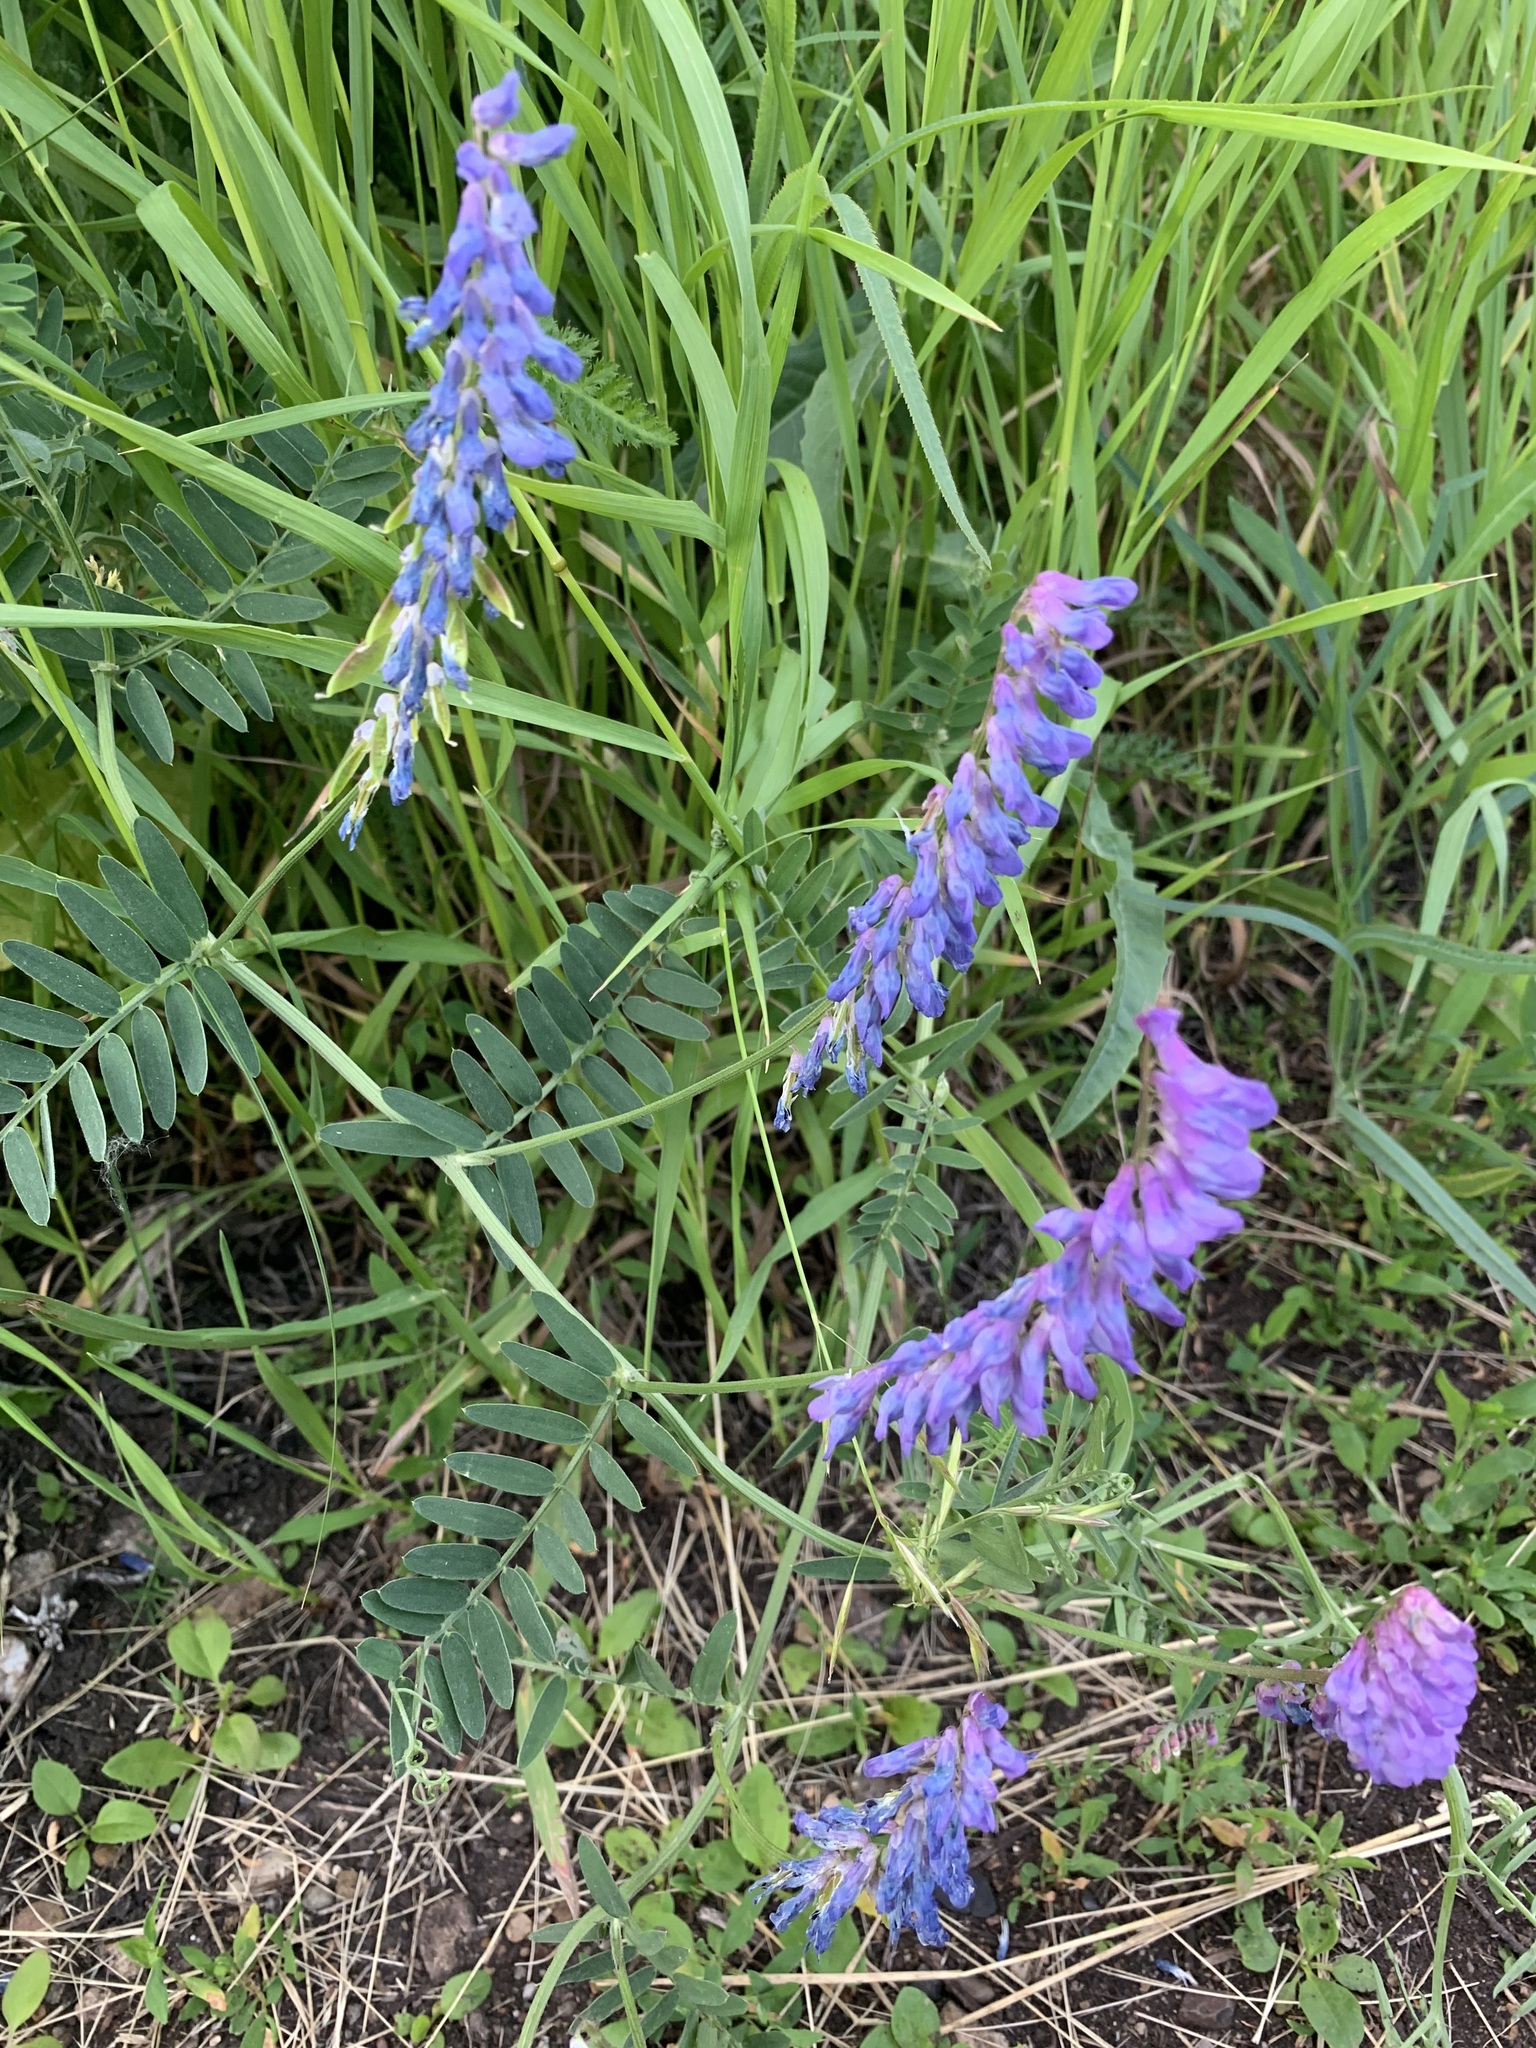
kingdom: Plantae
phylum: Tracheophyta
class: Magnoliopsida
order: Fabales
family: Fabaceae
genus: Vicia
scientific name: Vicia cracca
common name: Bird vetch
